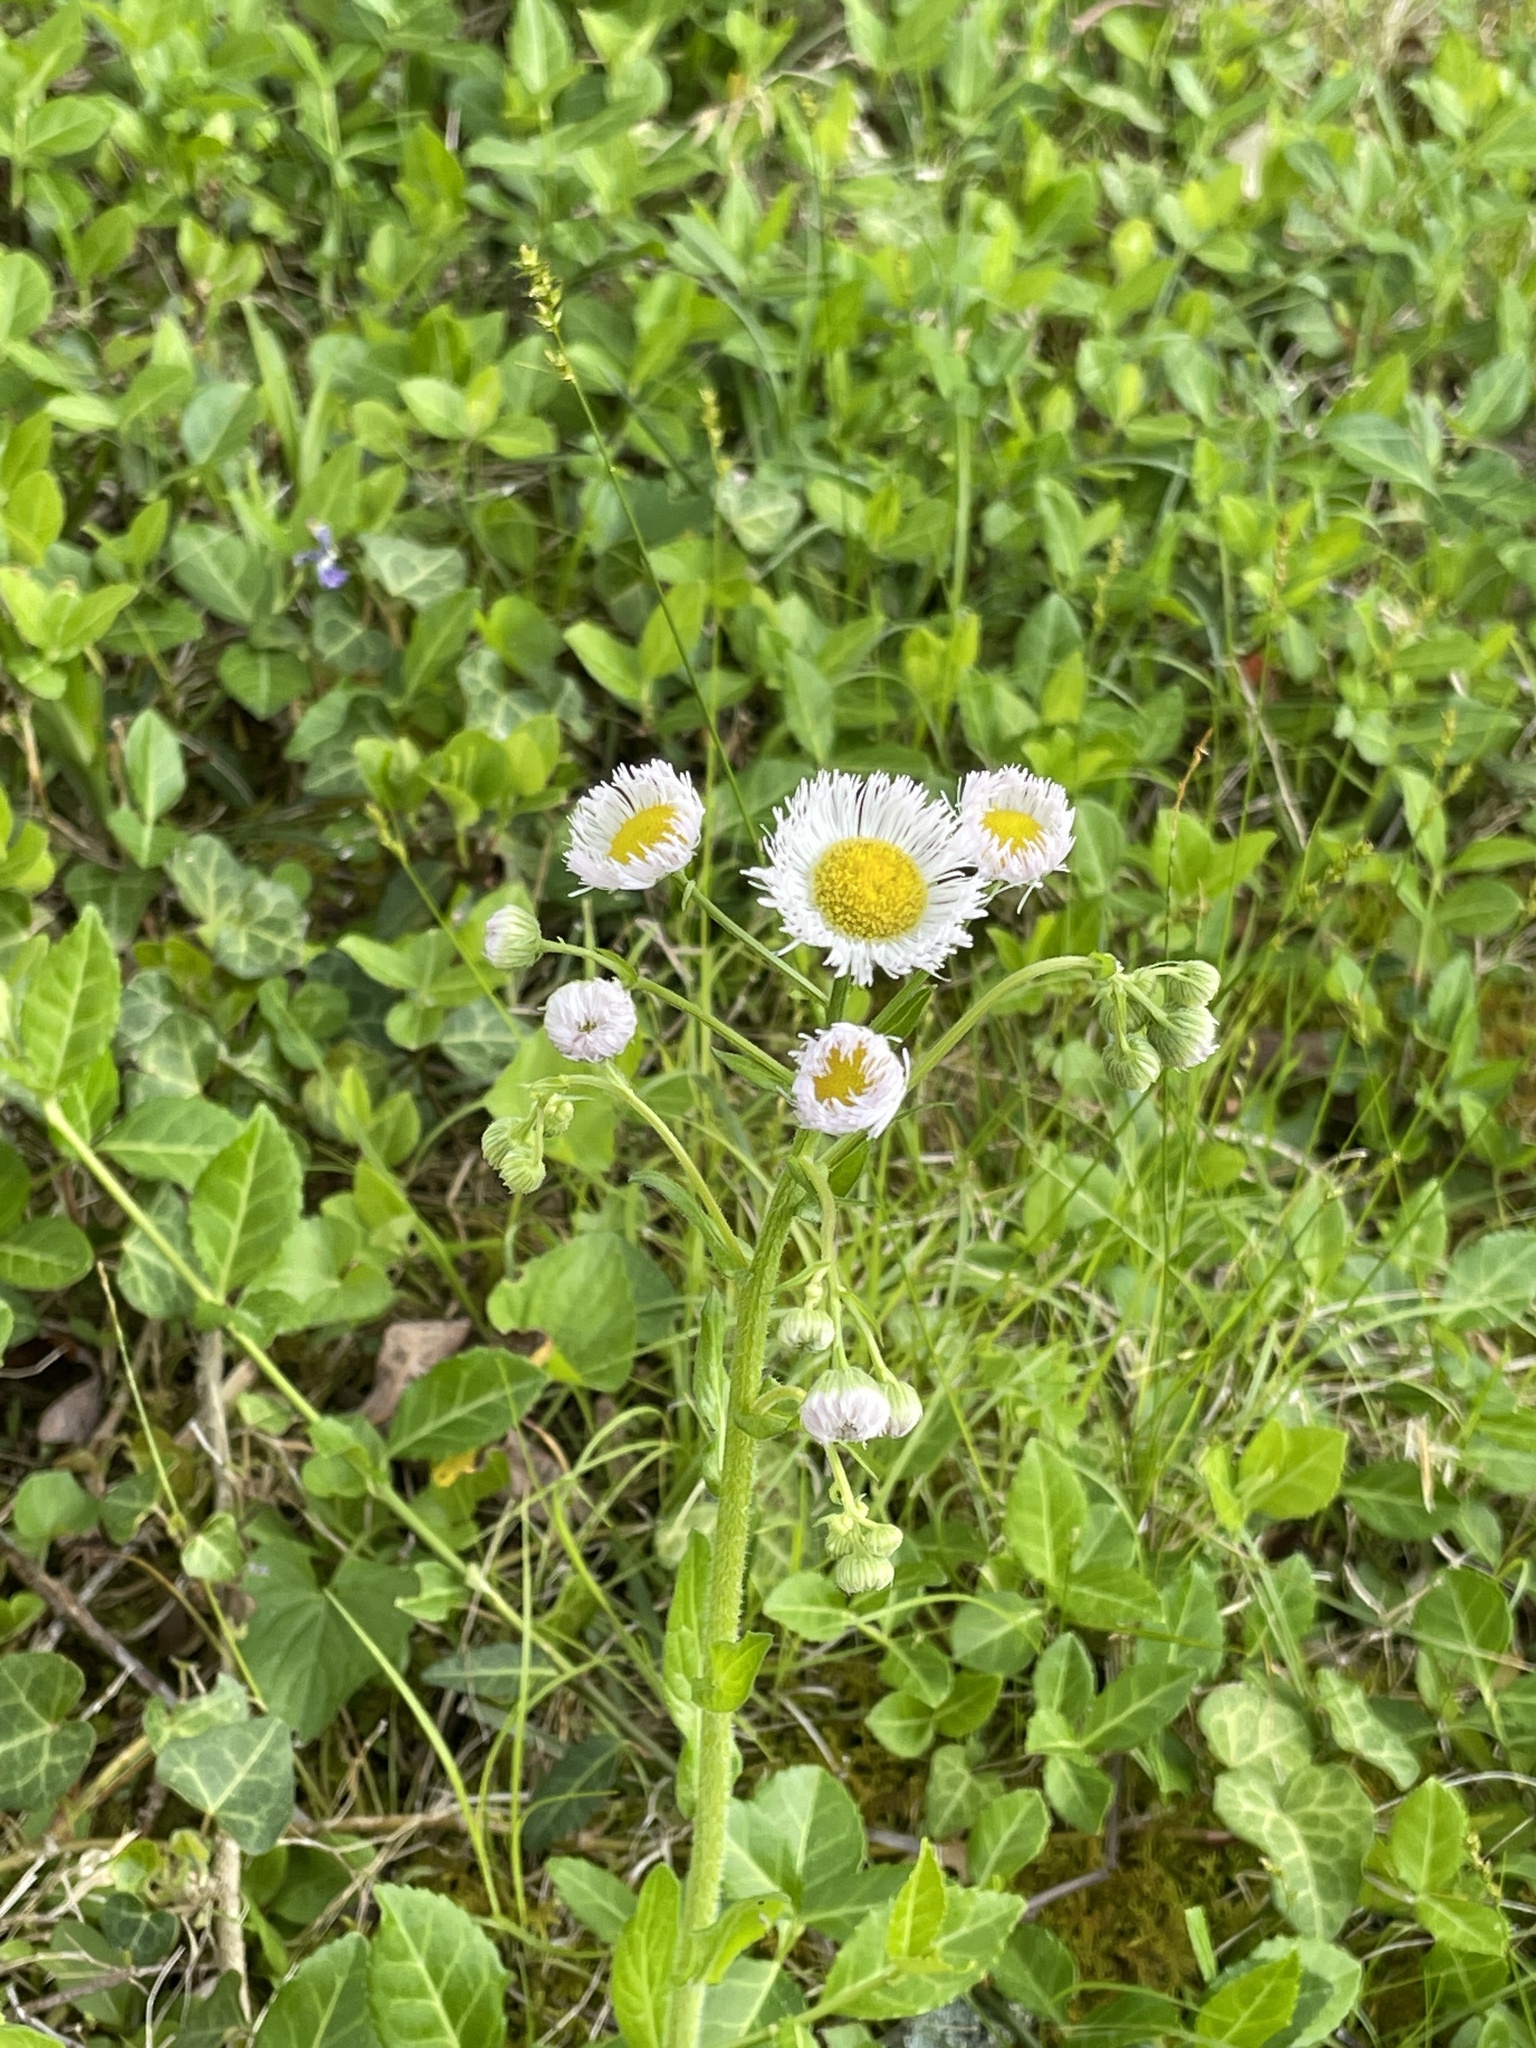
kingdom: Plantae
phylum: Tracheophyta
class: Magnoliopsida
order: Asterales
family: Asteraceae
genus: Erigeron
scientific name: Erigeron philadelphicus
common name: Robin's-plantain
